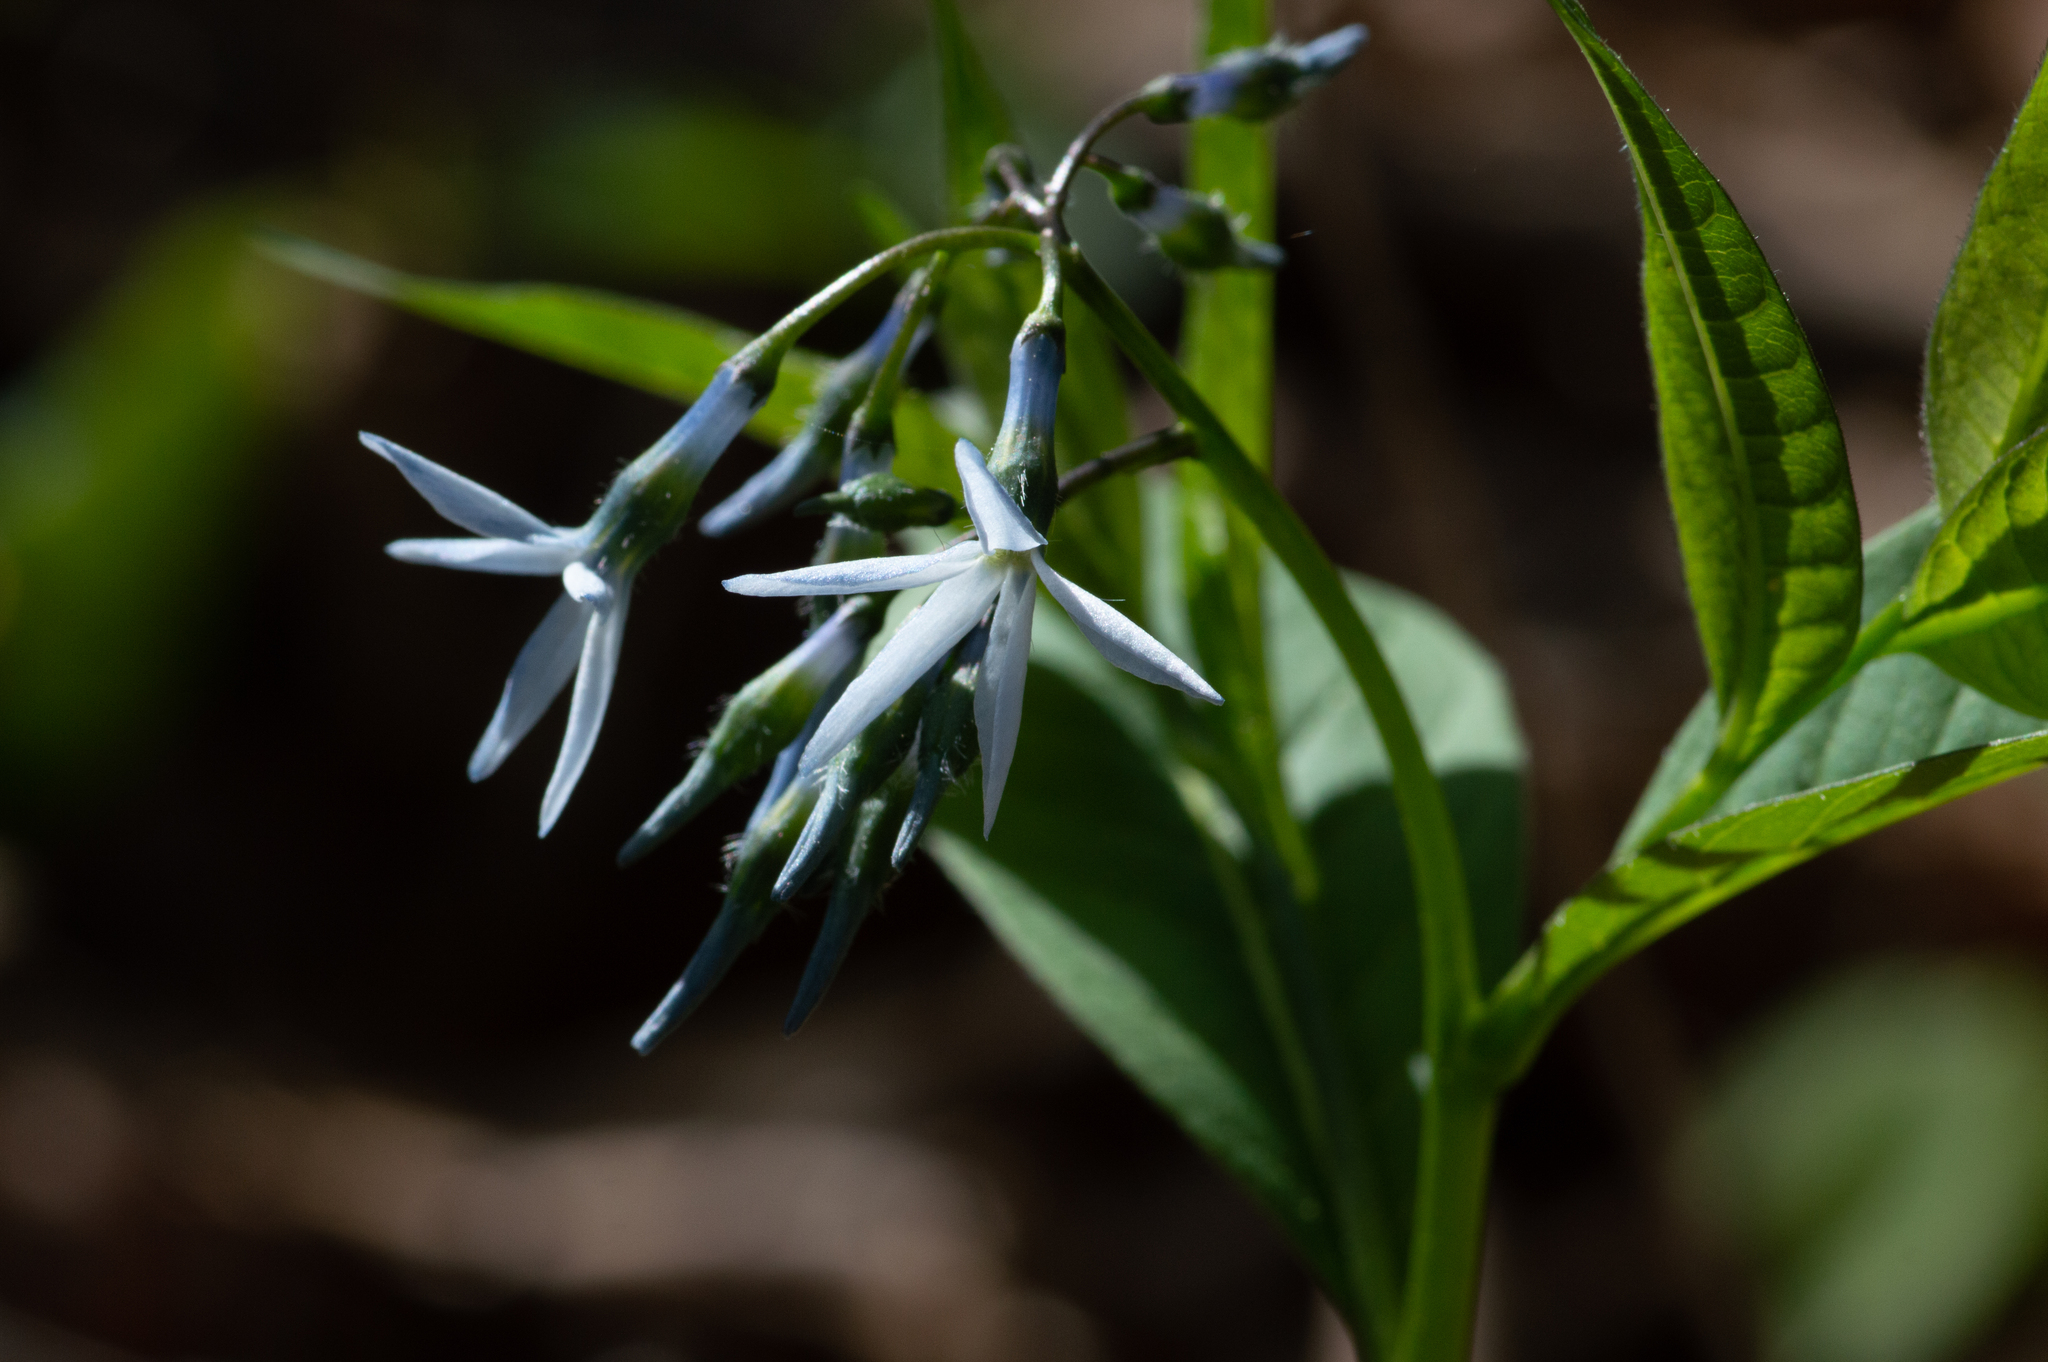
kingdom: Plantae
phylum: Tracheophyta
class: Magnoliopsida
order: Gentianales
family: Apocynaceae
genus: Amsonia
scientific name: Amsonia tabernaemontana
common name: Texas-star
